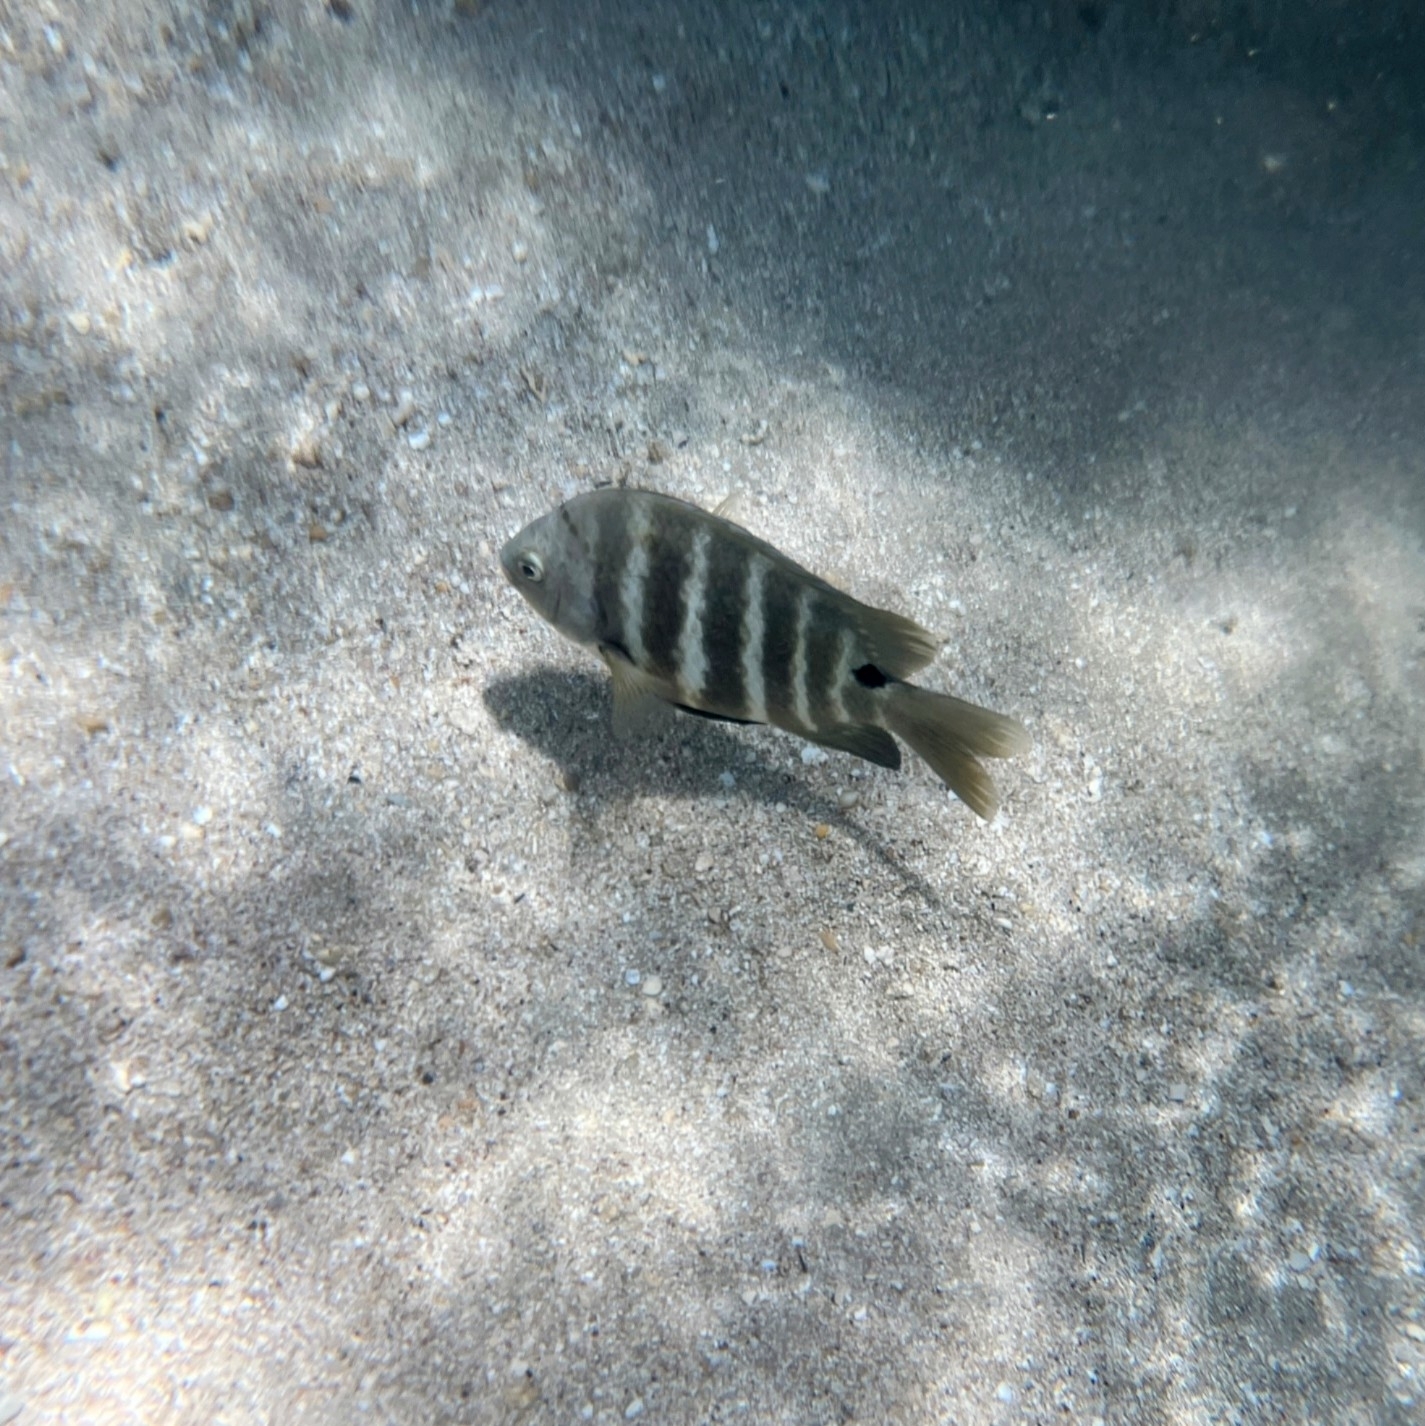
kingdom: Animalia
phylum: Chordata
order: Perciformes
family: Pomacentridae
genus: Abudefduf
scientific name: Abudefduf sordidus
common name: Blackspot sergeant
